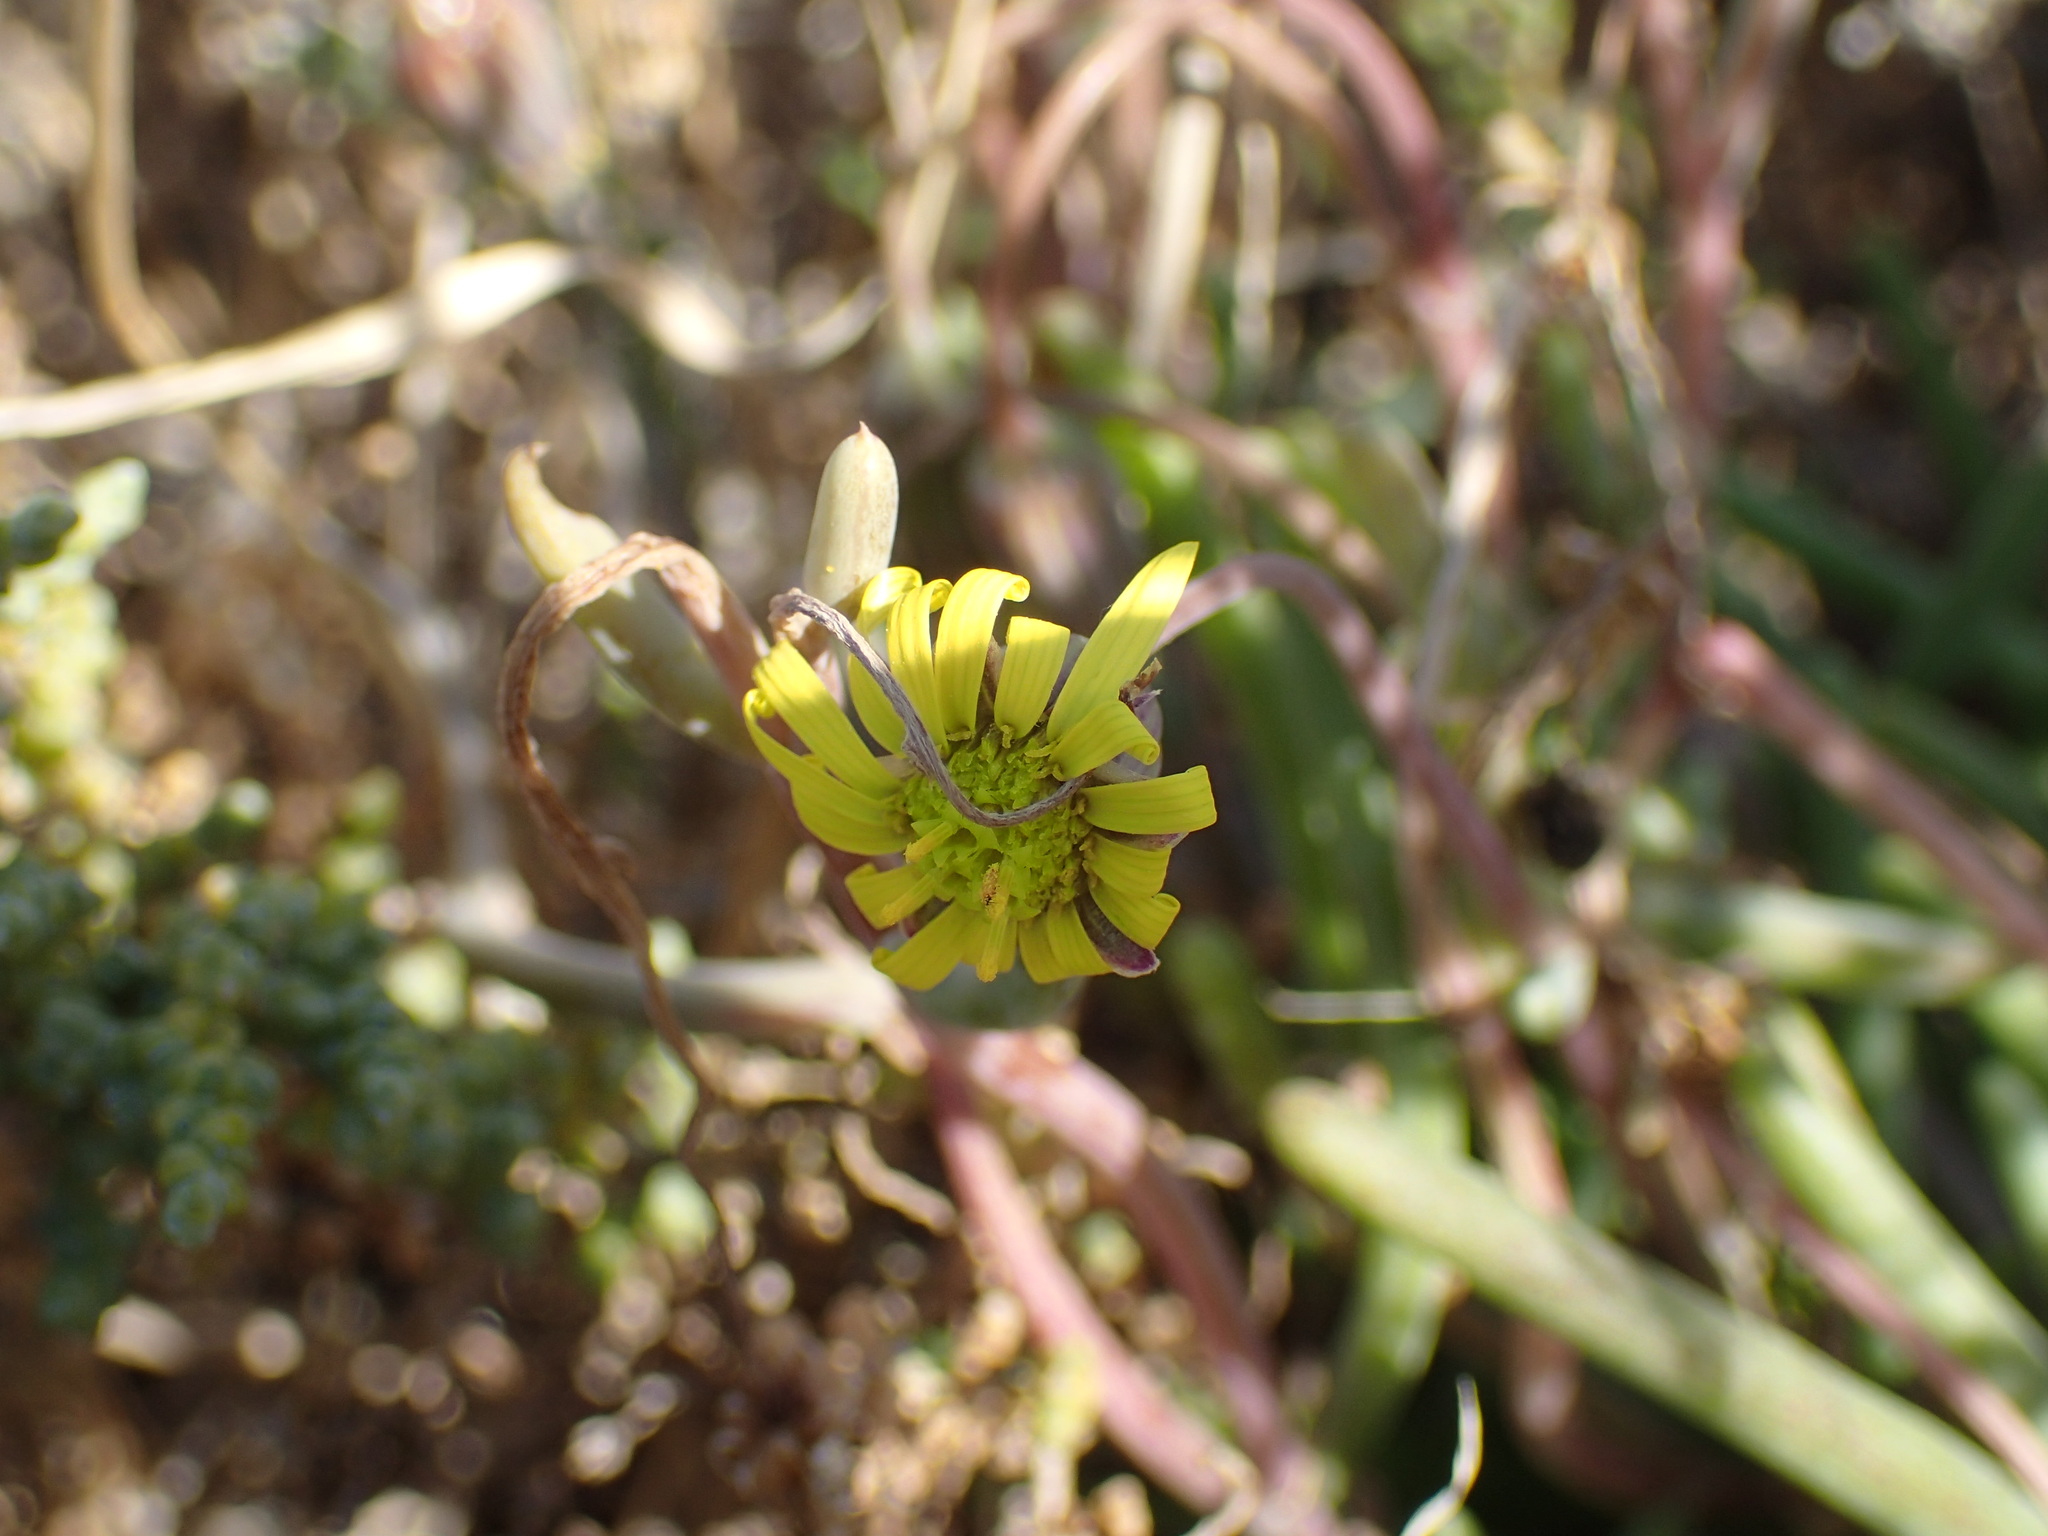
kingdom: Plantae
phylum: Tracheophyta
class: Magnoliopsida
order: Asterales
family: Asteraceae
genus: Crassothonna
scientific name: Crassothonna protecta
